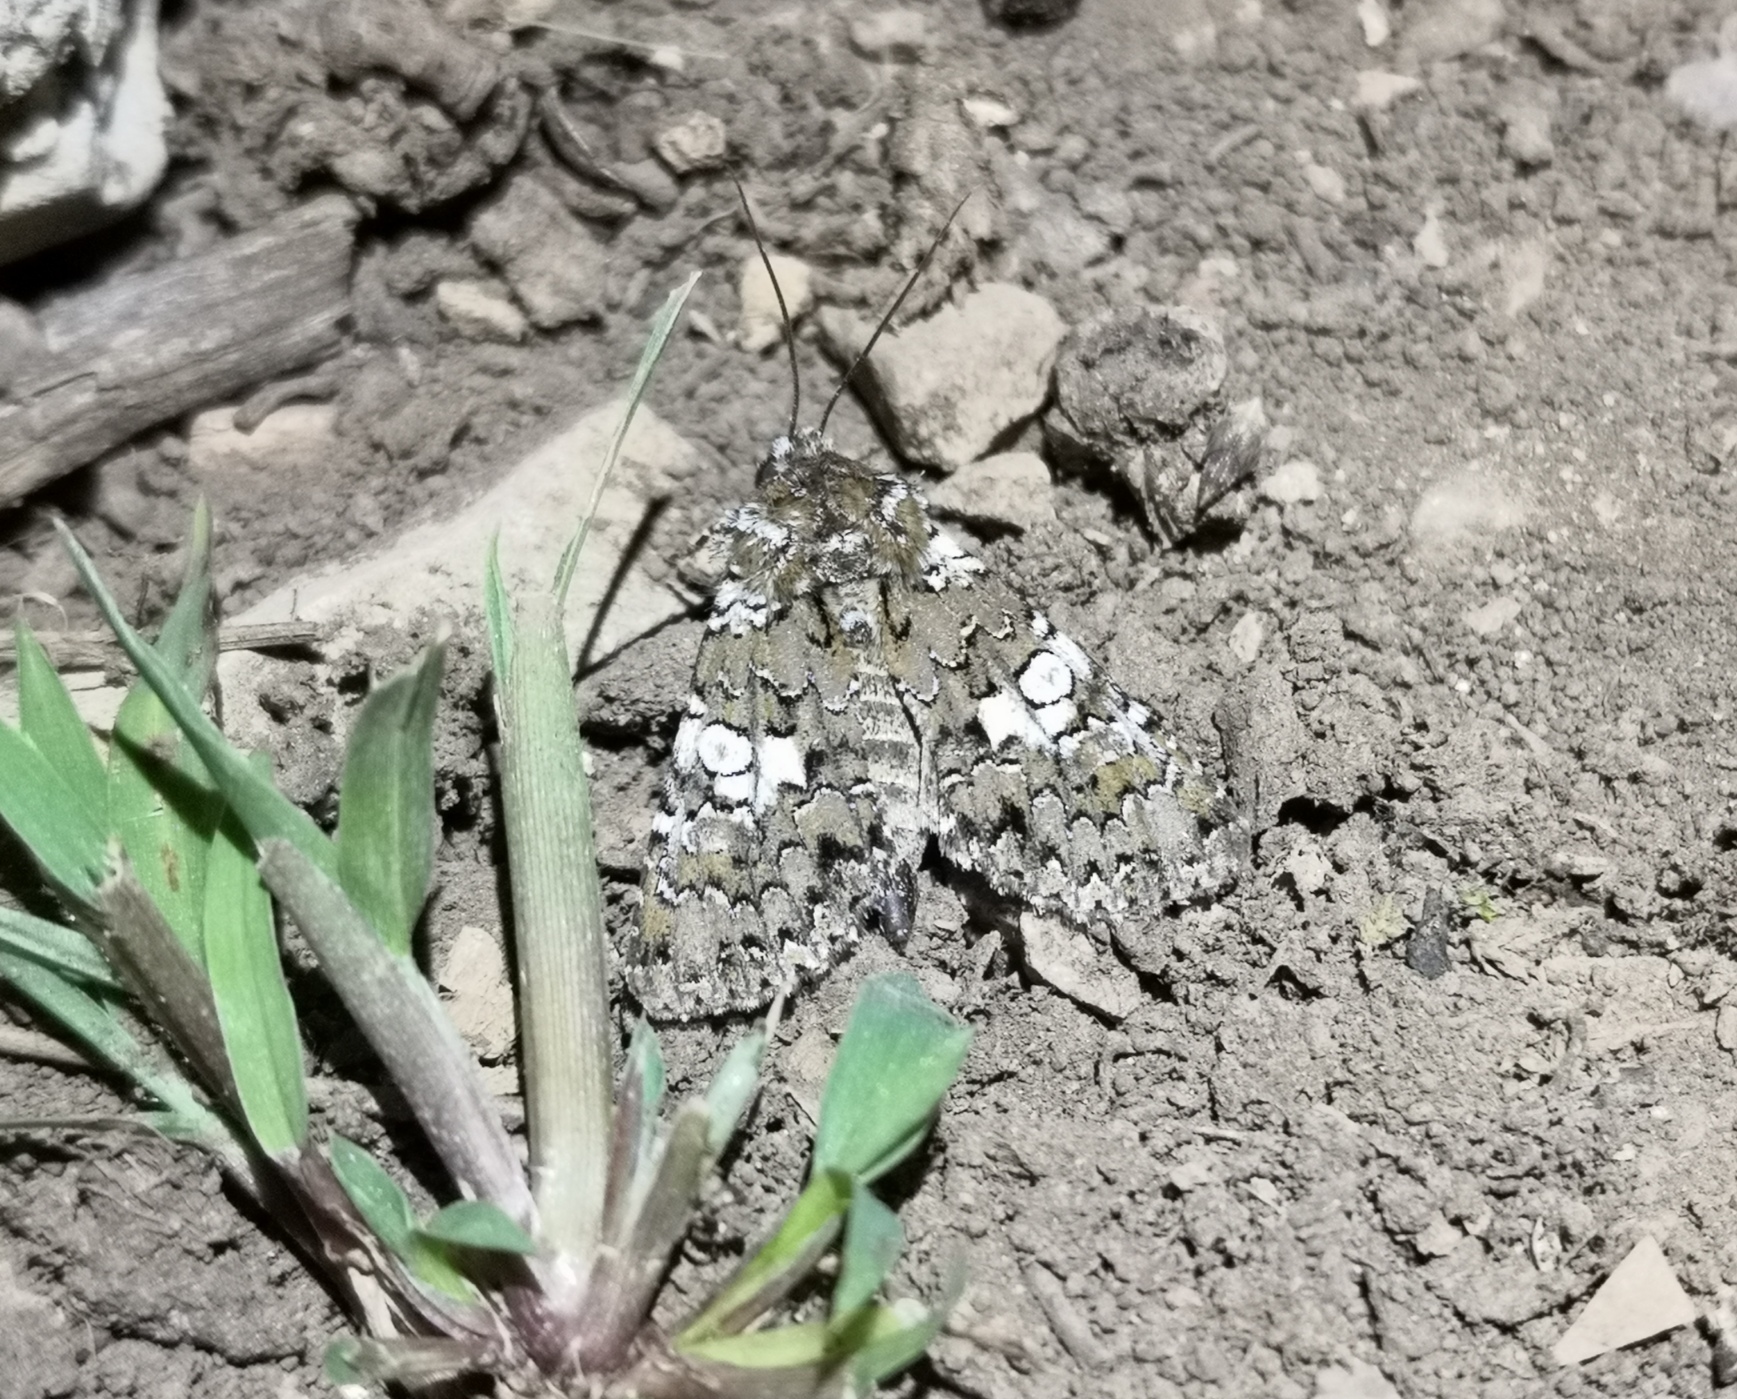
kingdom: Animalia
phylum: Arthropoda
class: Insecta
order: Lepidoptera
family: Noctuidae
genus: Hadena
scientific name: Hadena albimacula
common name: White spot
